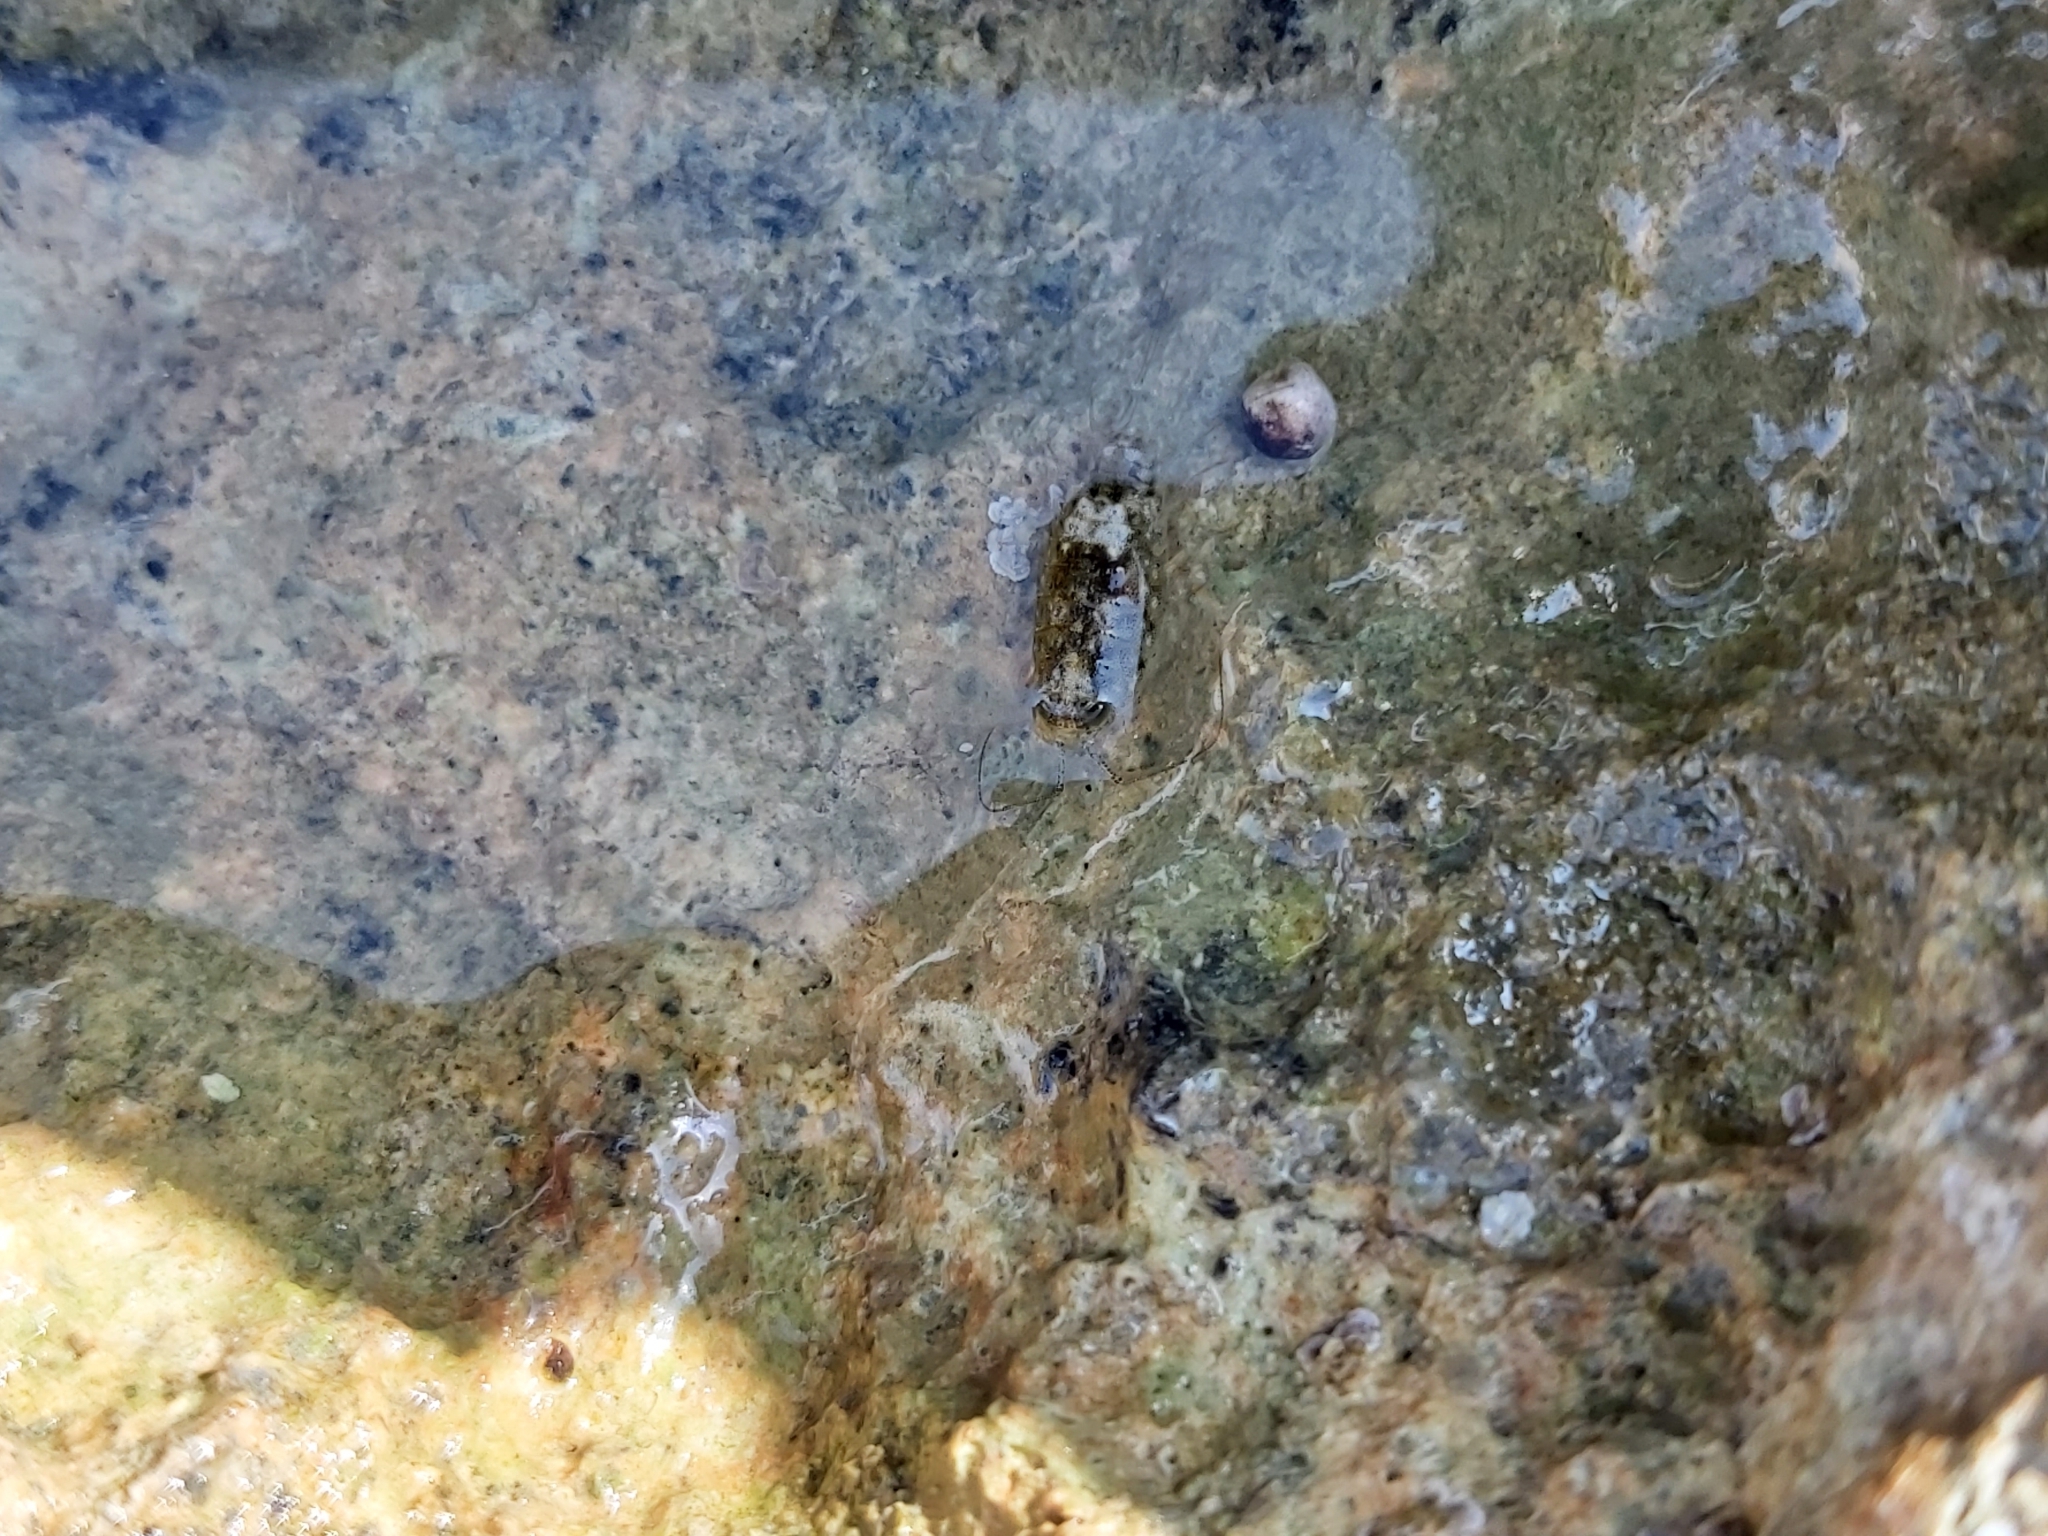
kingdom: Animalia
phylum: Arthropoda
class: Malacostraca
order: Isopoda
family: Ligiidae
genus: Ligia
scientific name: Ligia italica
